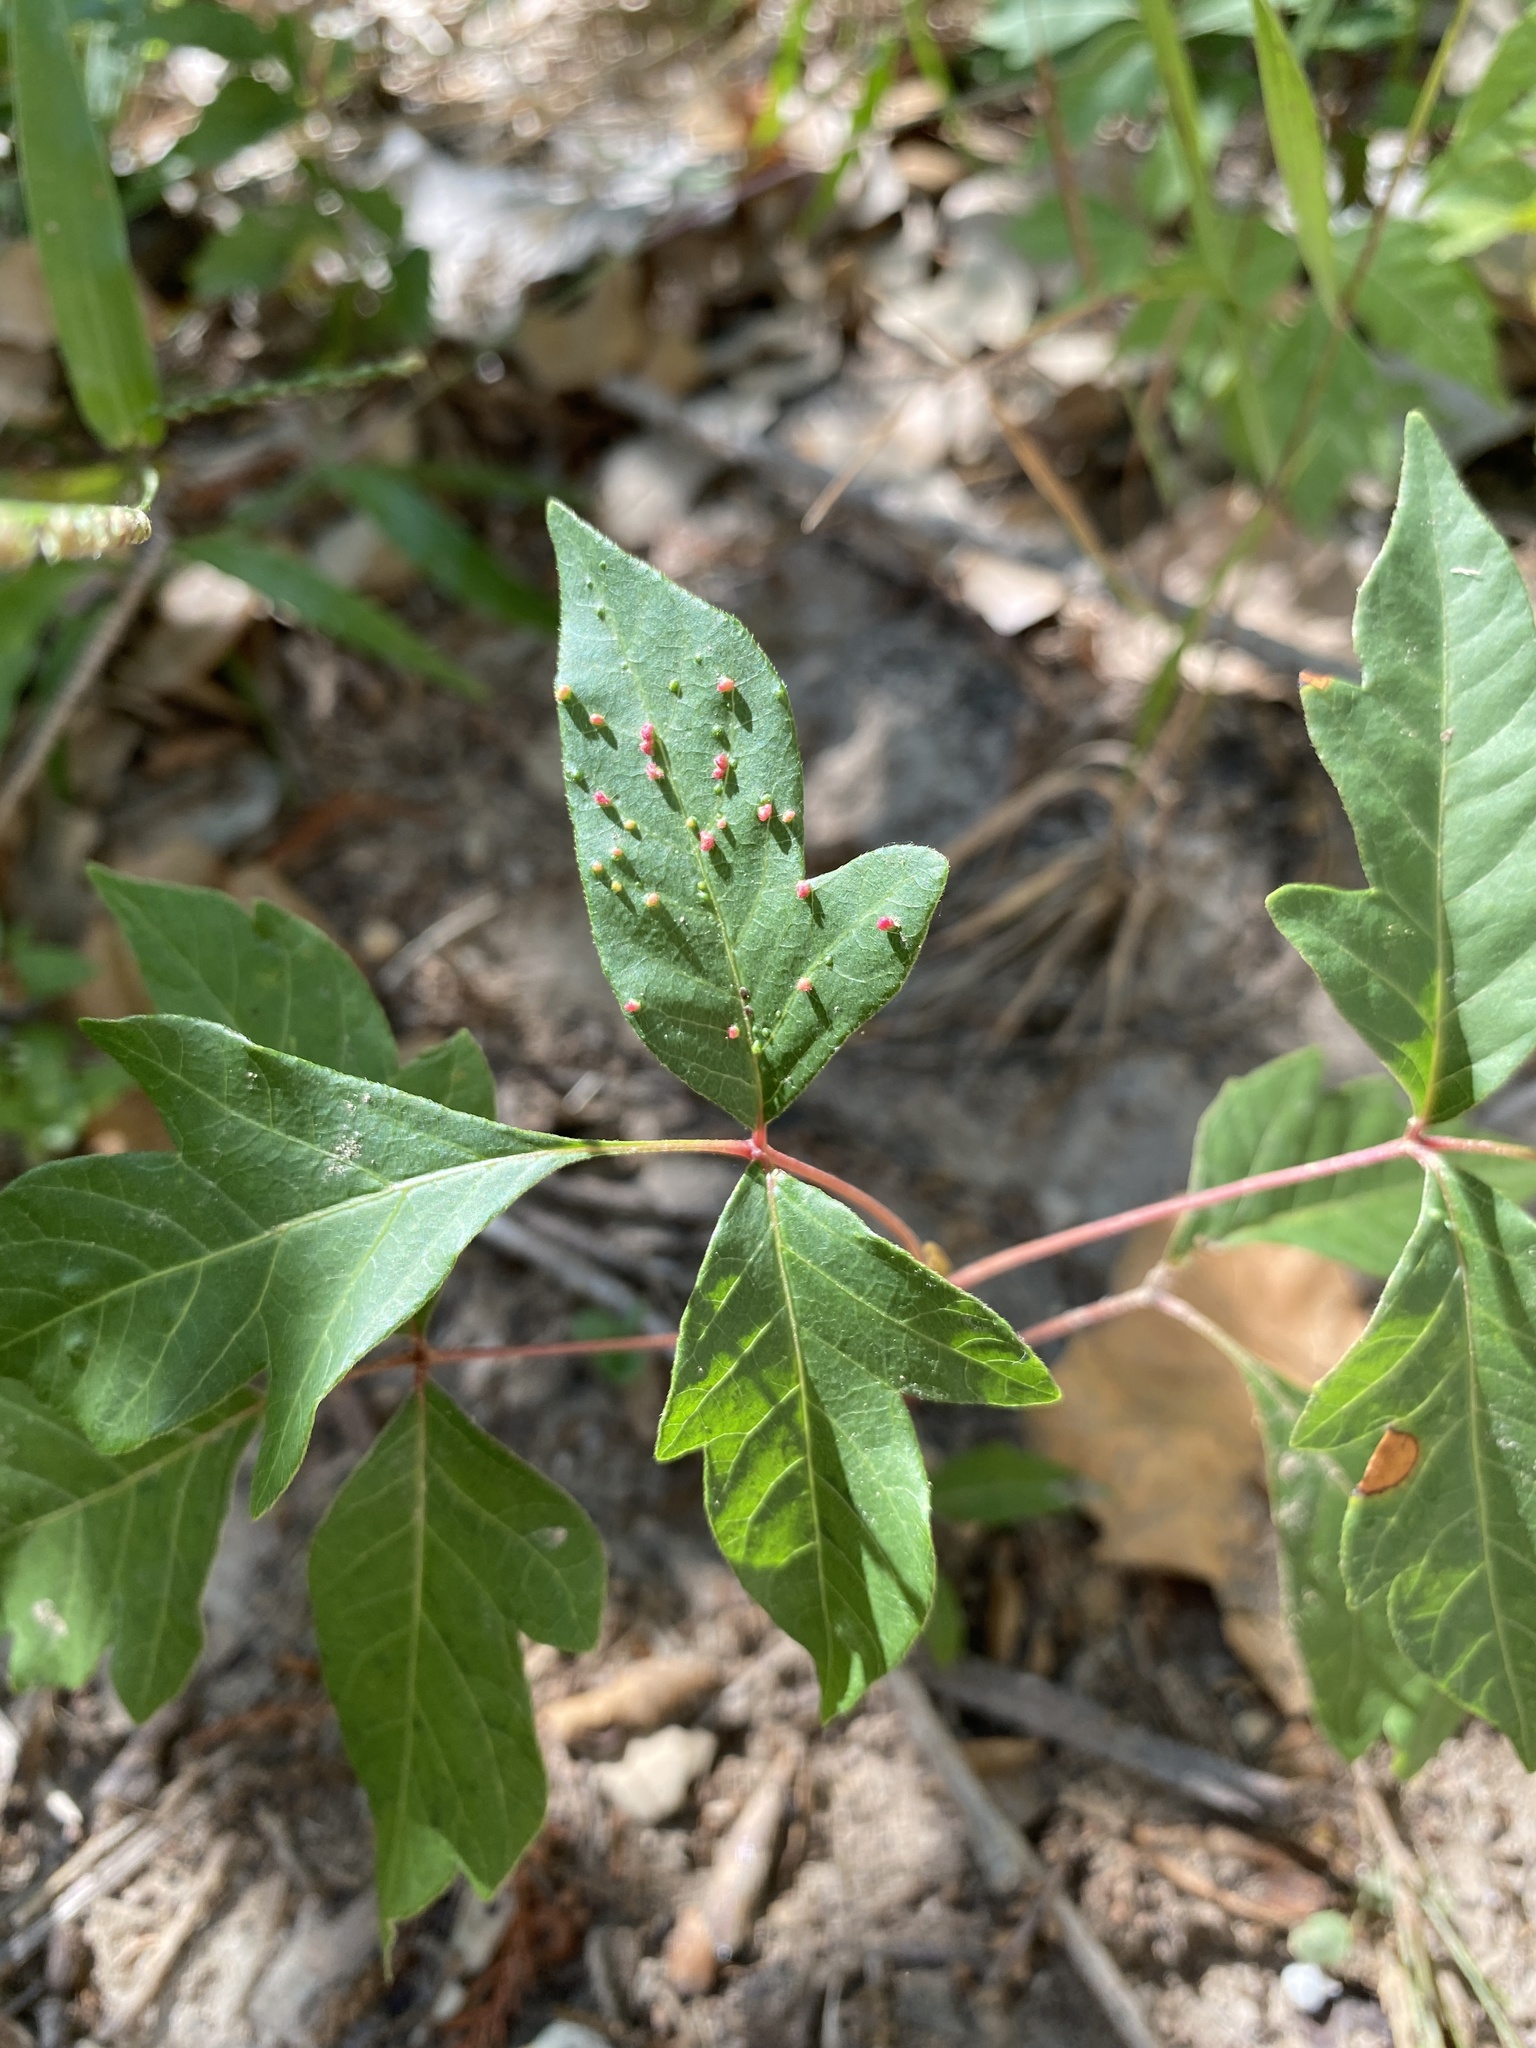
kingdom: Animalia
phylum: Arthropoda
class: Arachnida
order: Trombidiformes
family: Eriophyidae
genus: Aculops
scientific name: Aculops
